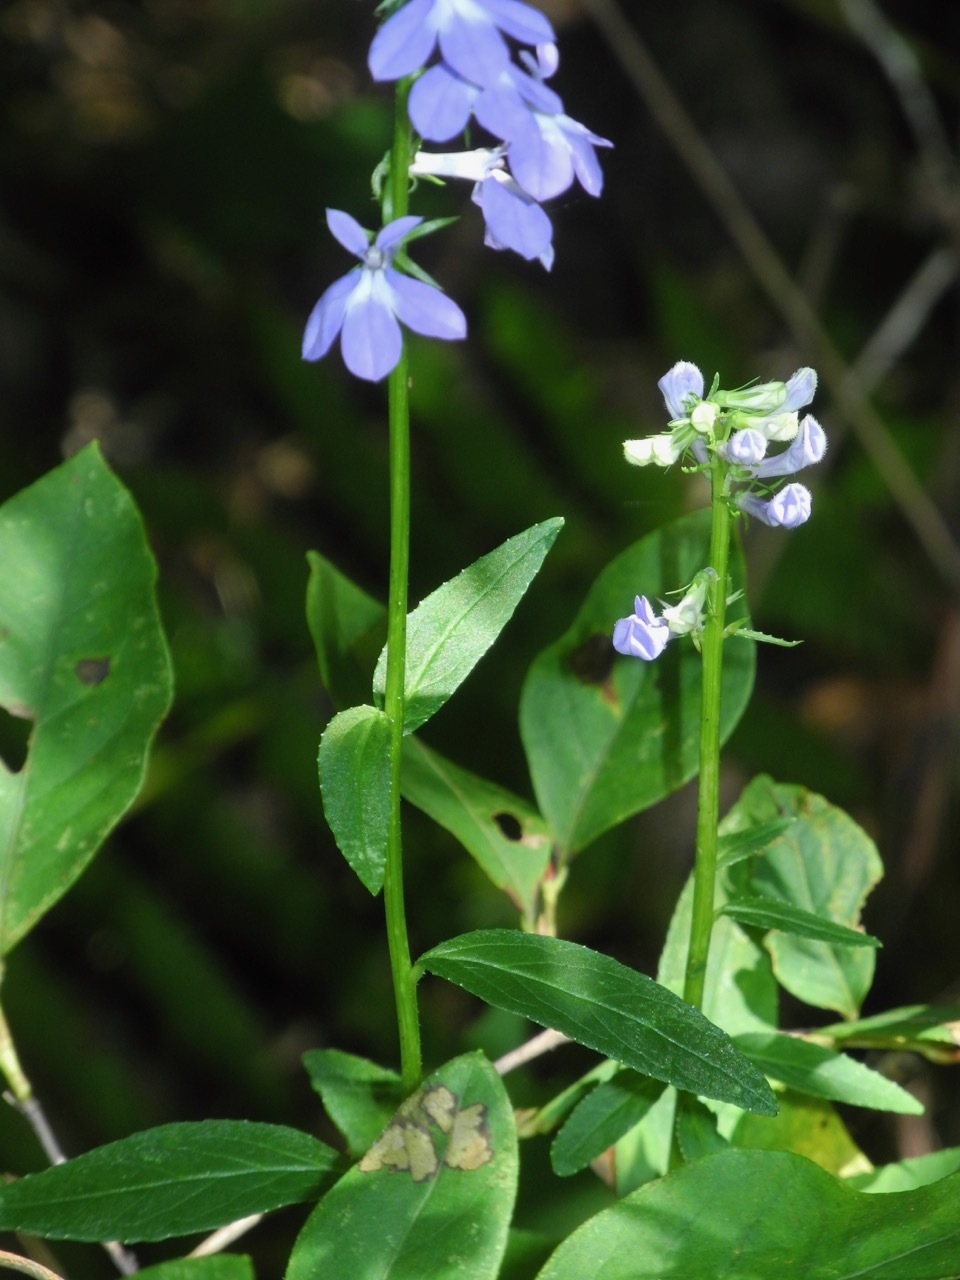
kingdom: Plantae
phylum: Tracheophyta
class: Magnoliopsida
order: Asterales
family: Campanulaceae
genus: Lobelia
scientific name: Lobelia amoena
